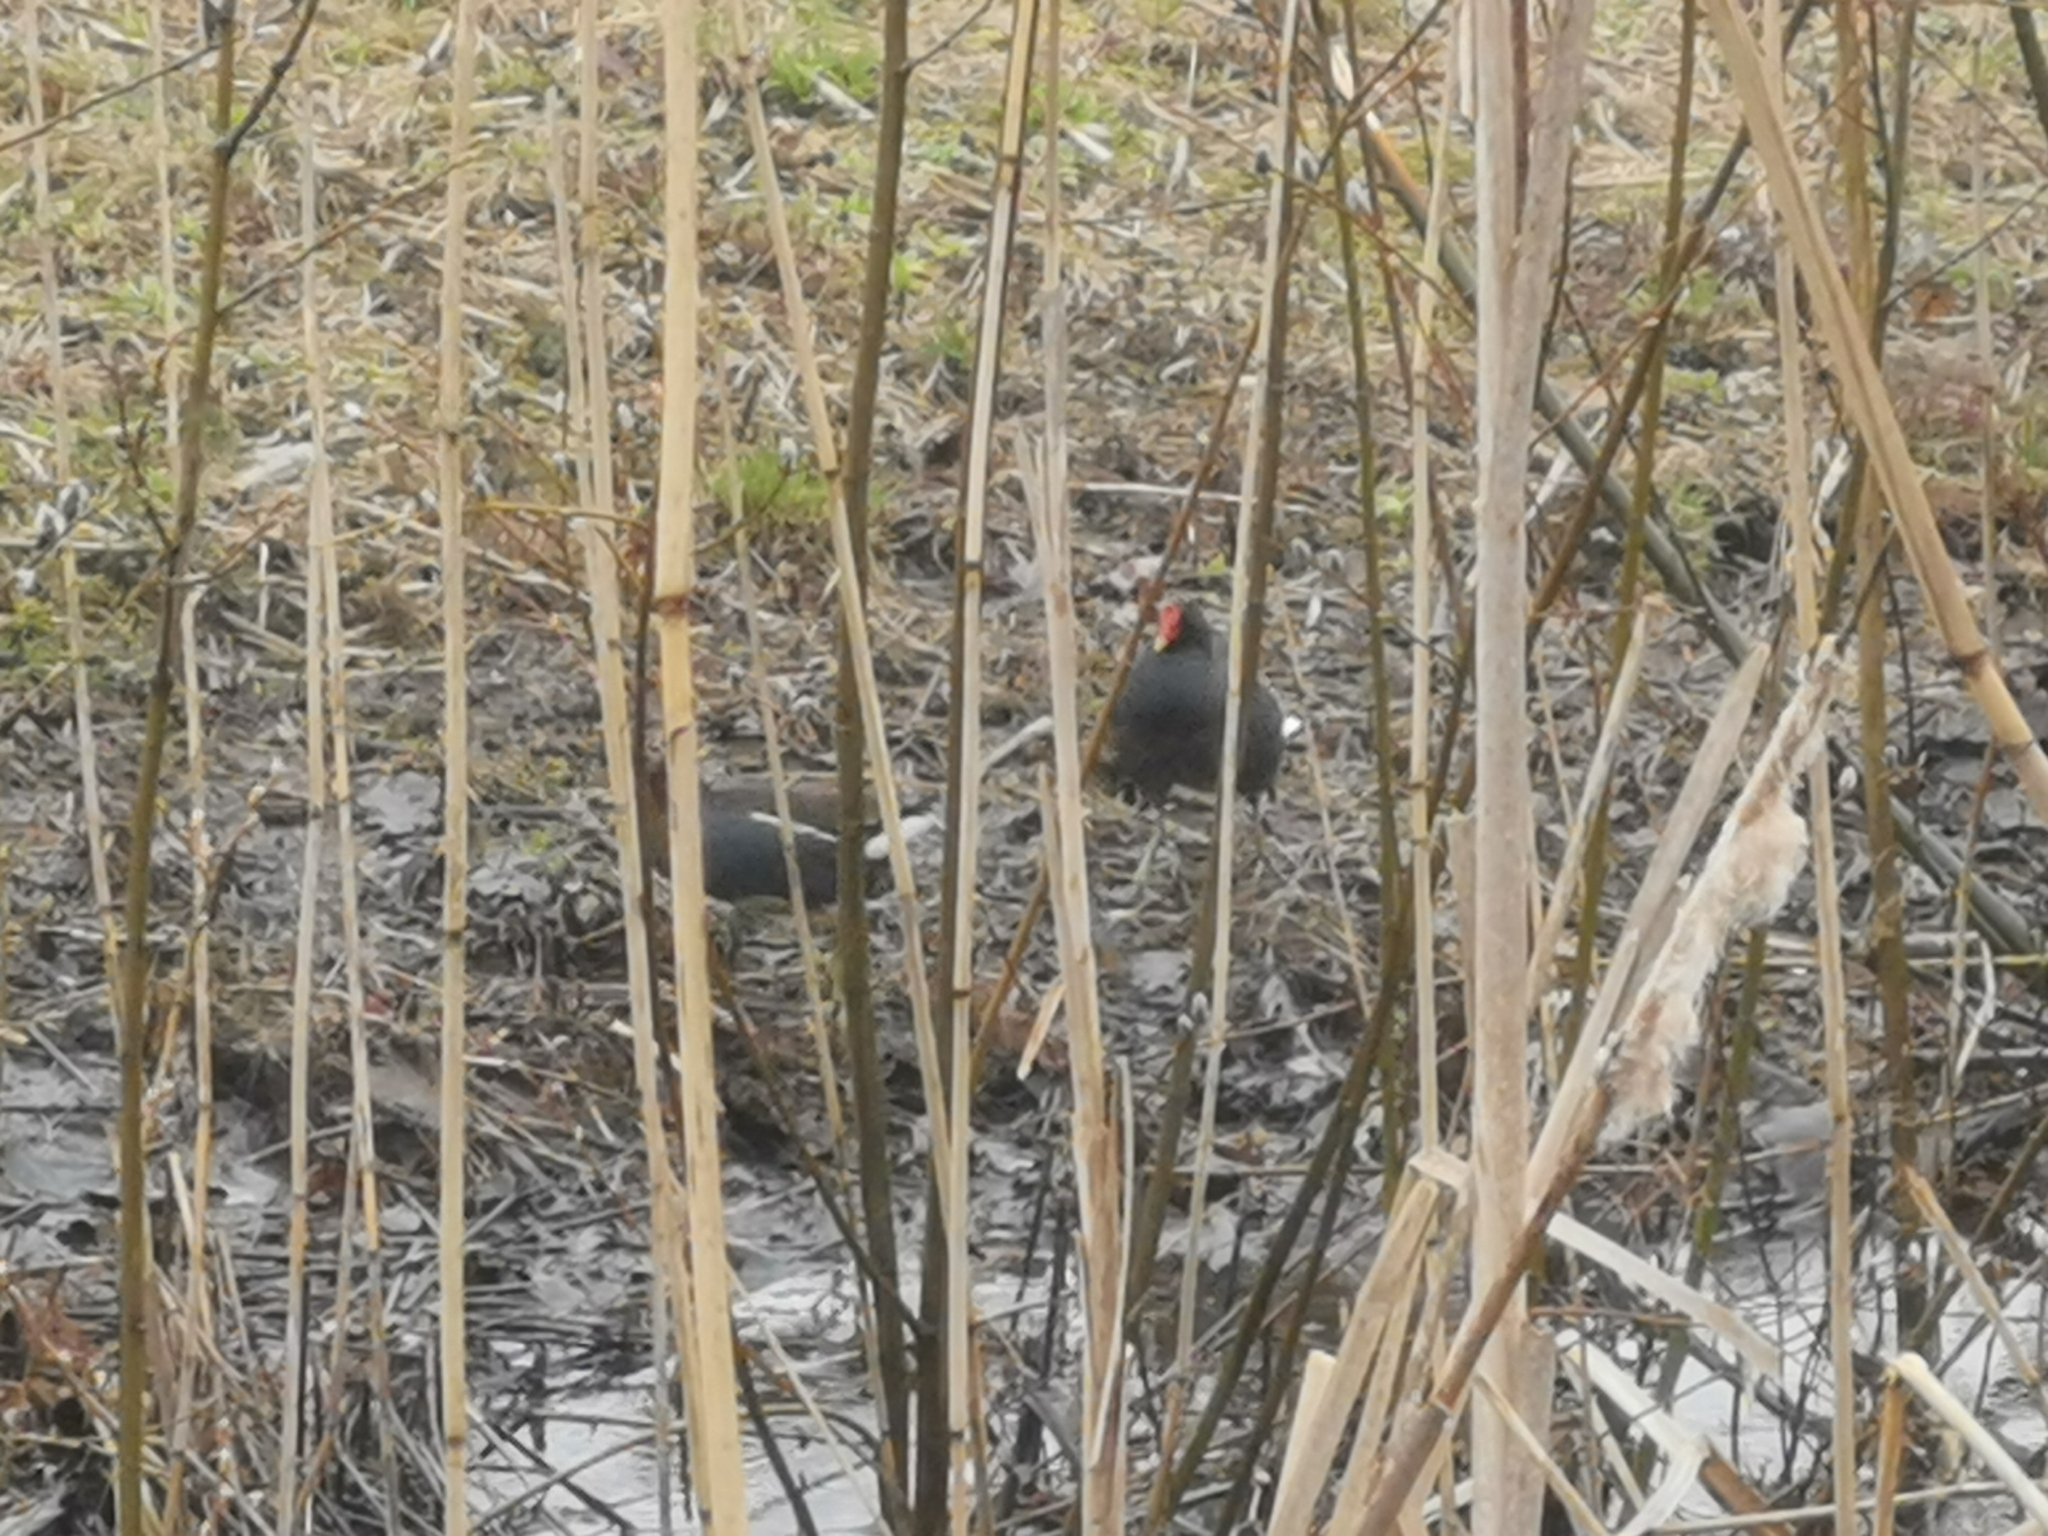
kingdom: Animalia
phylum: Chordata
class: Aves
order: Gruiformes
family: Rallidae
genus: Gallinula
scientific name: Gallinula chloropus
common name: Common moorhen
